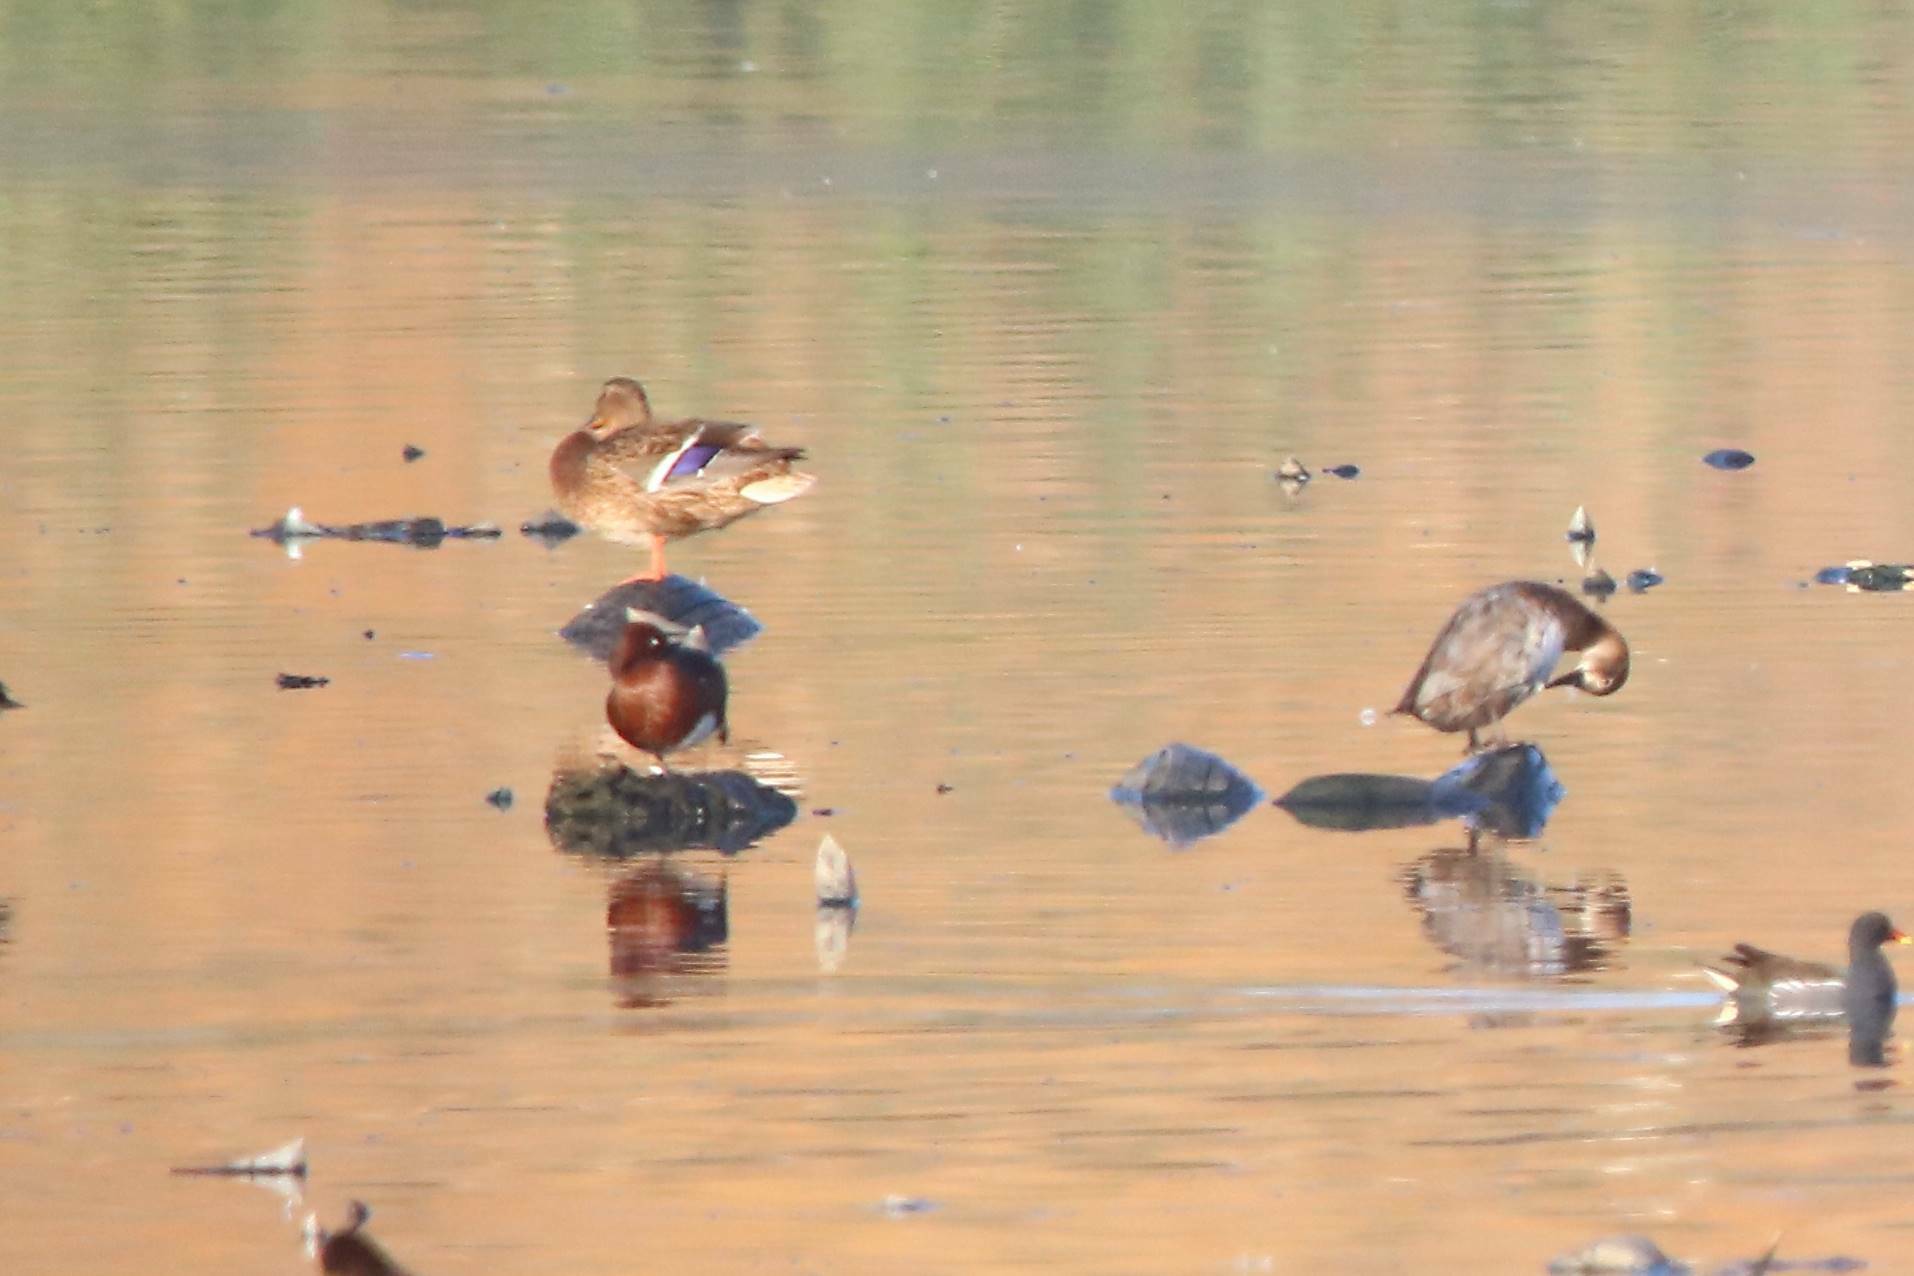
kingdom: Animalia
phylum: Chordata
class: Aves
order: Anseriformes
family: Anatidae
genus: Aythya
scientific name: Aythya nyroca
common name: Ferruginous duck
